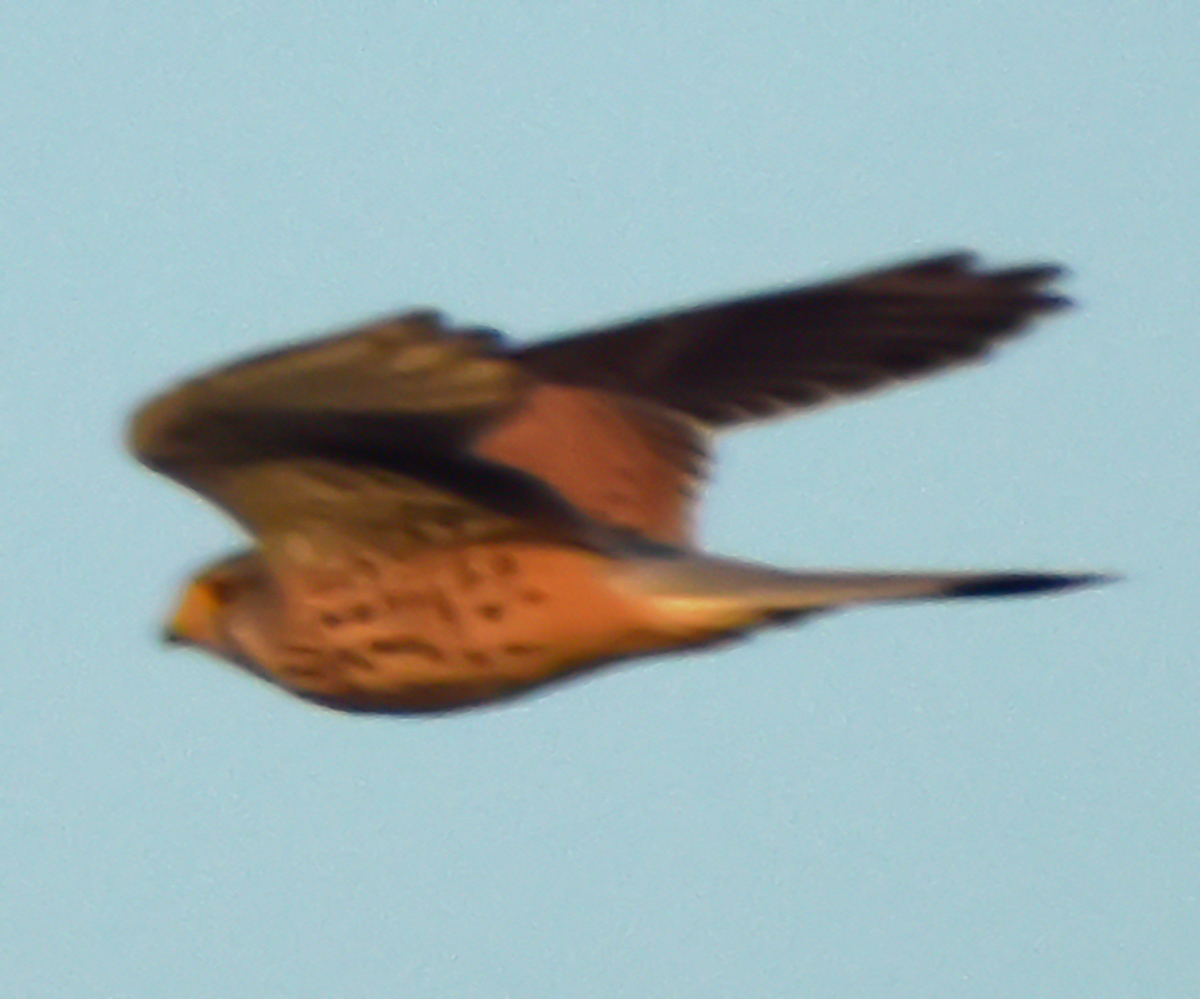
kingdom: Animalia
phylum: Chordata
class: Aves
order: Falconiformes
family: Falconidae
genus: Falco
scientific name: Falco tinnunculus
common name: Common kestrel
